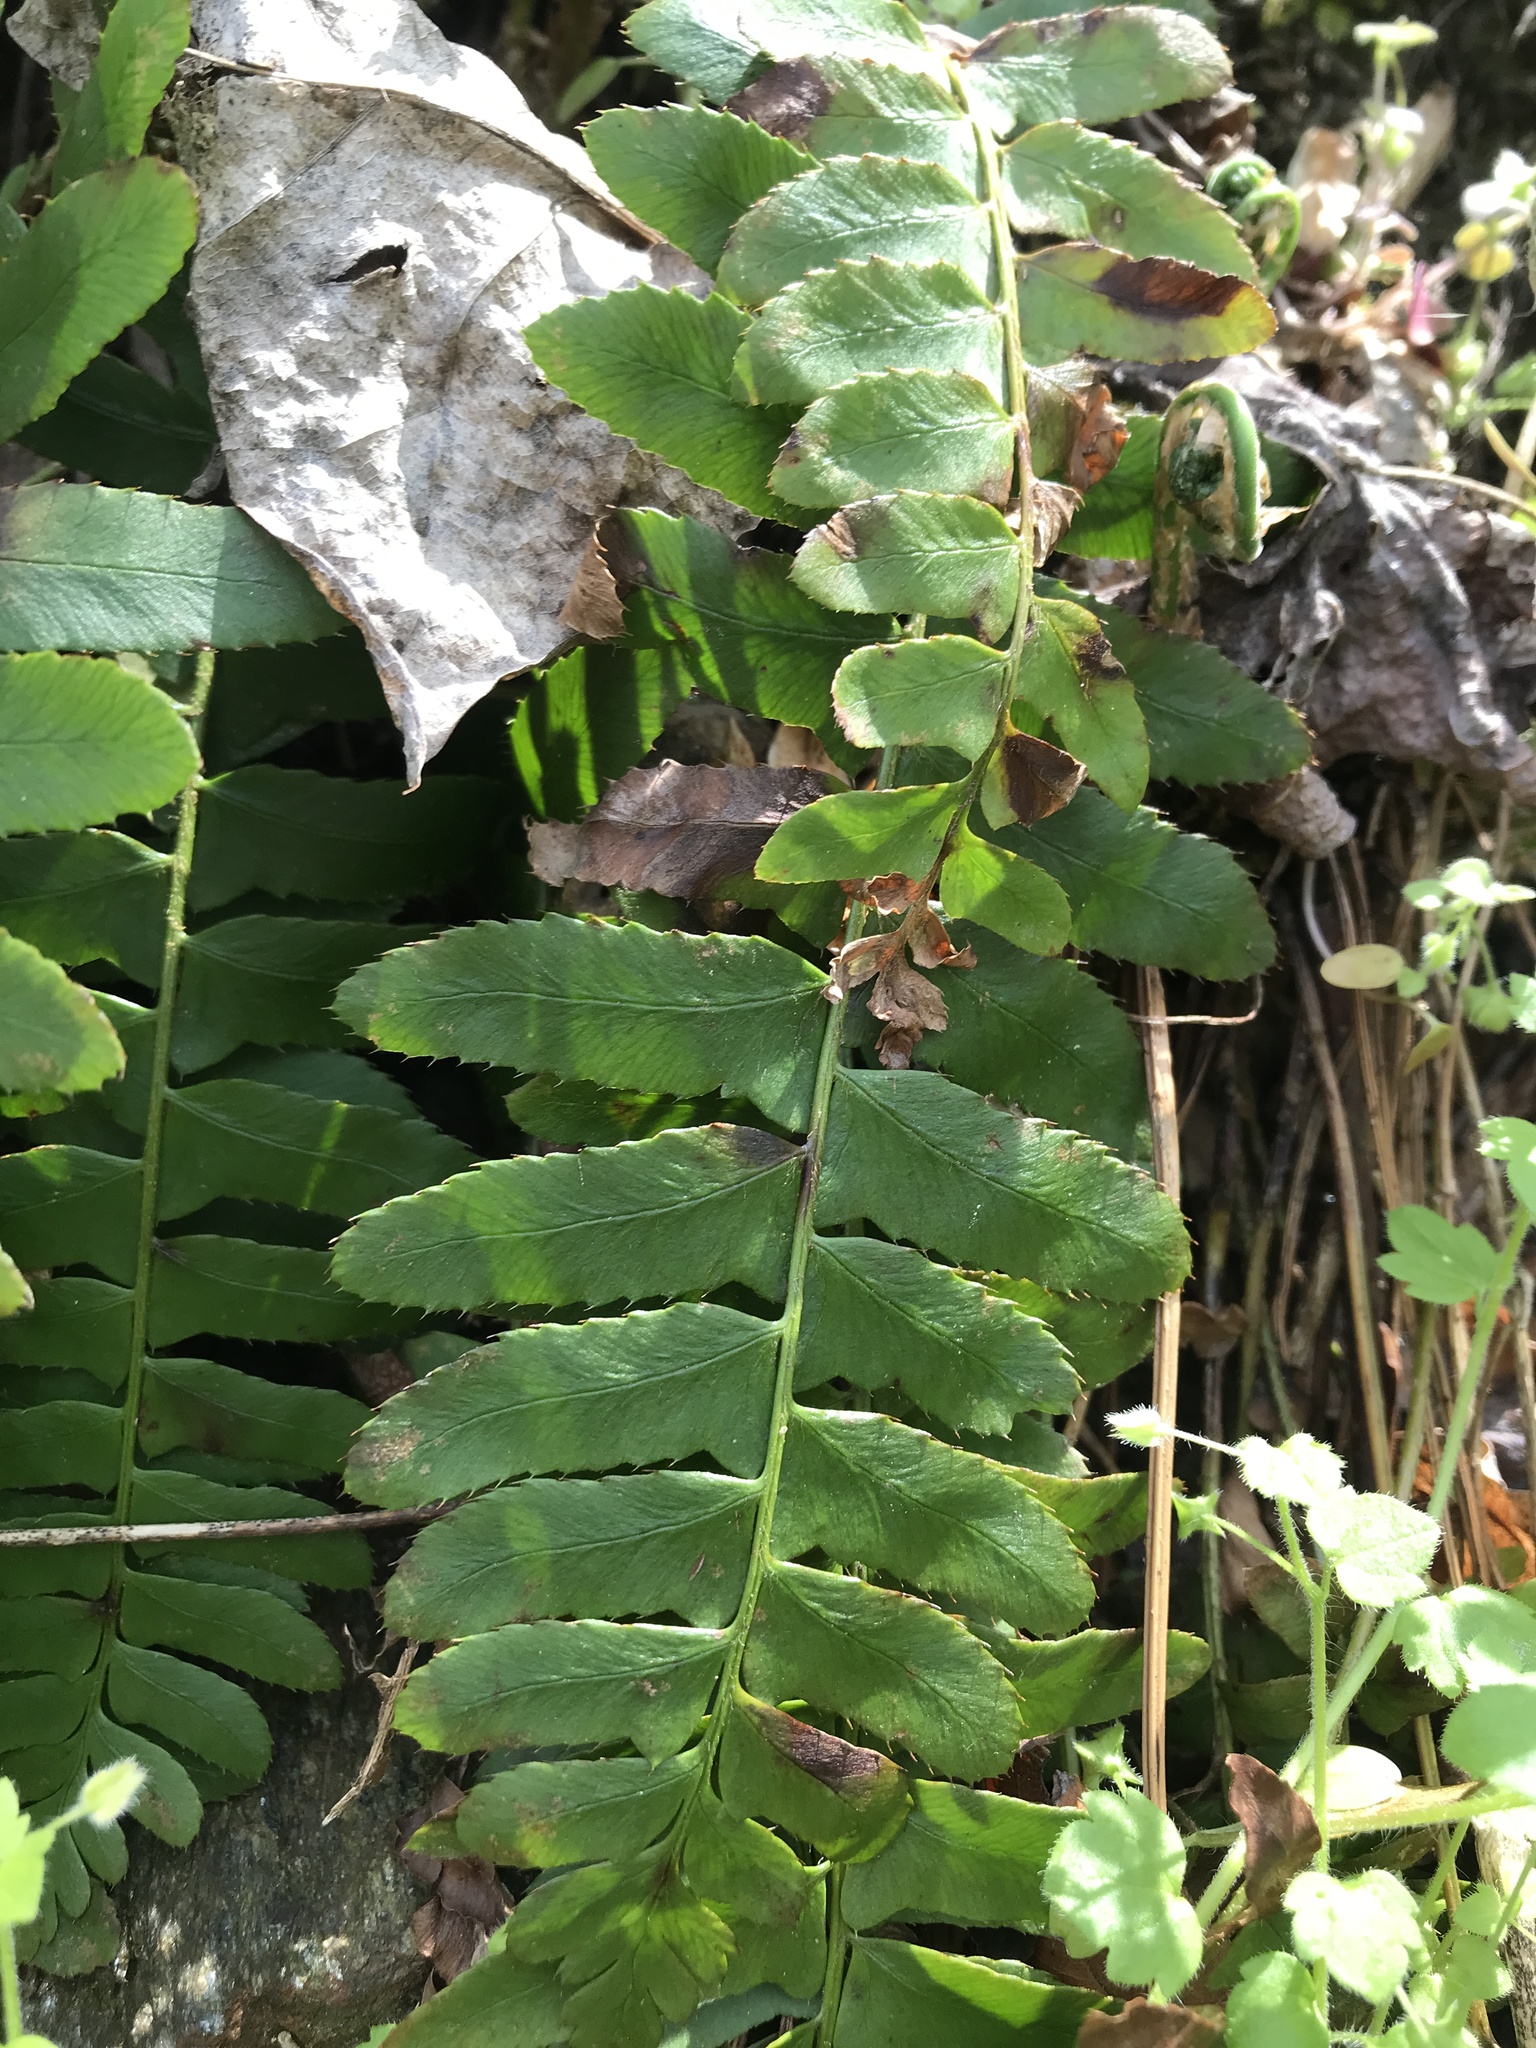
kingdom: Plantae
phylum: Tracheophyta
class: Polypodiopsida
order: Polypodiales
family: Dryopteridaceae
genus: Polystichum
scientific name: Polystichum acrostichoides
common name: Christmas fern
